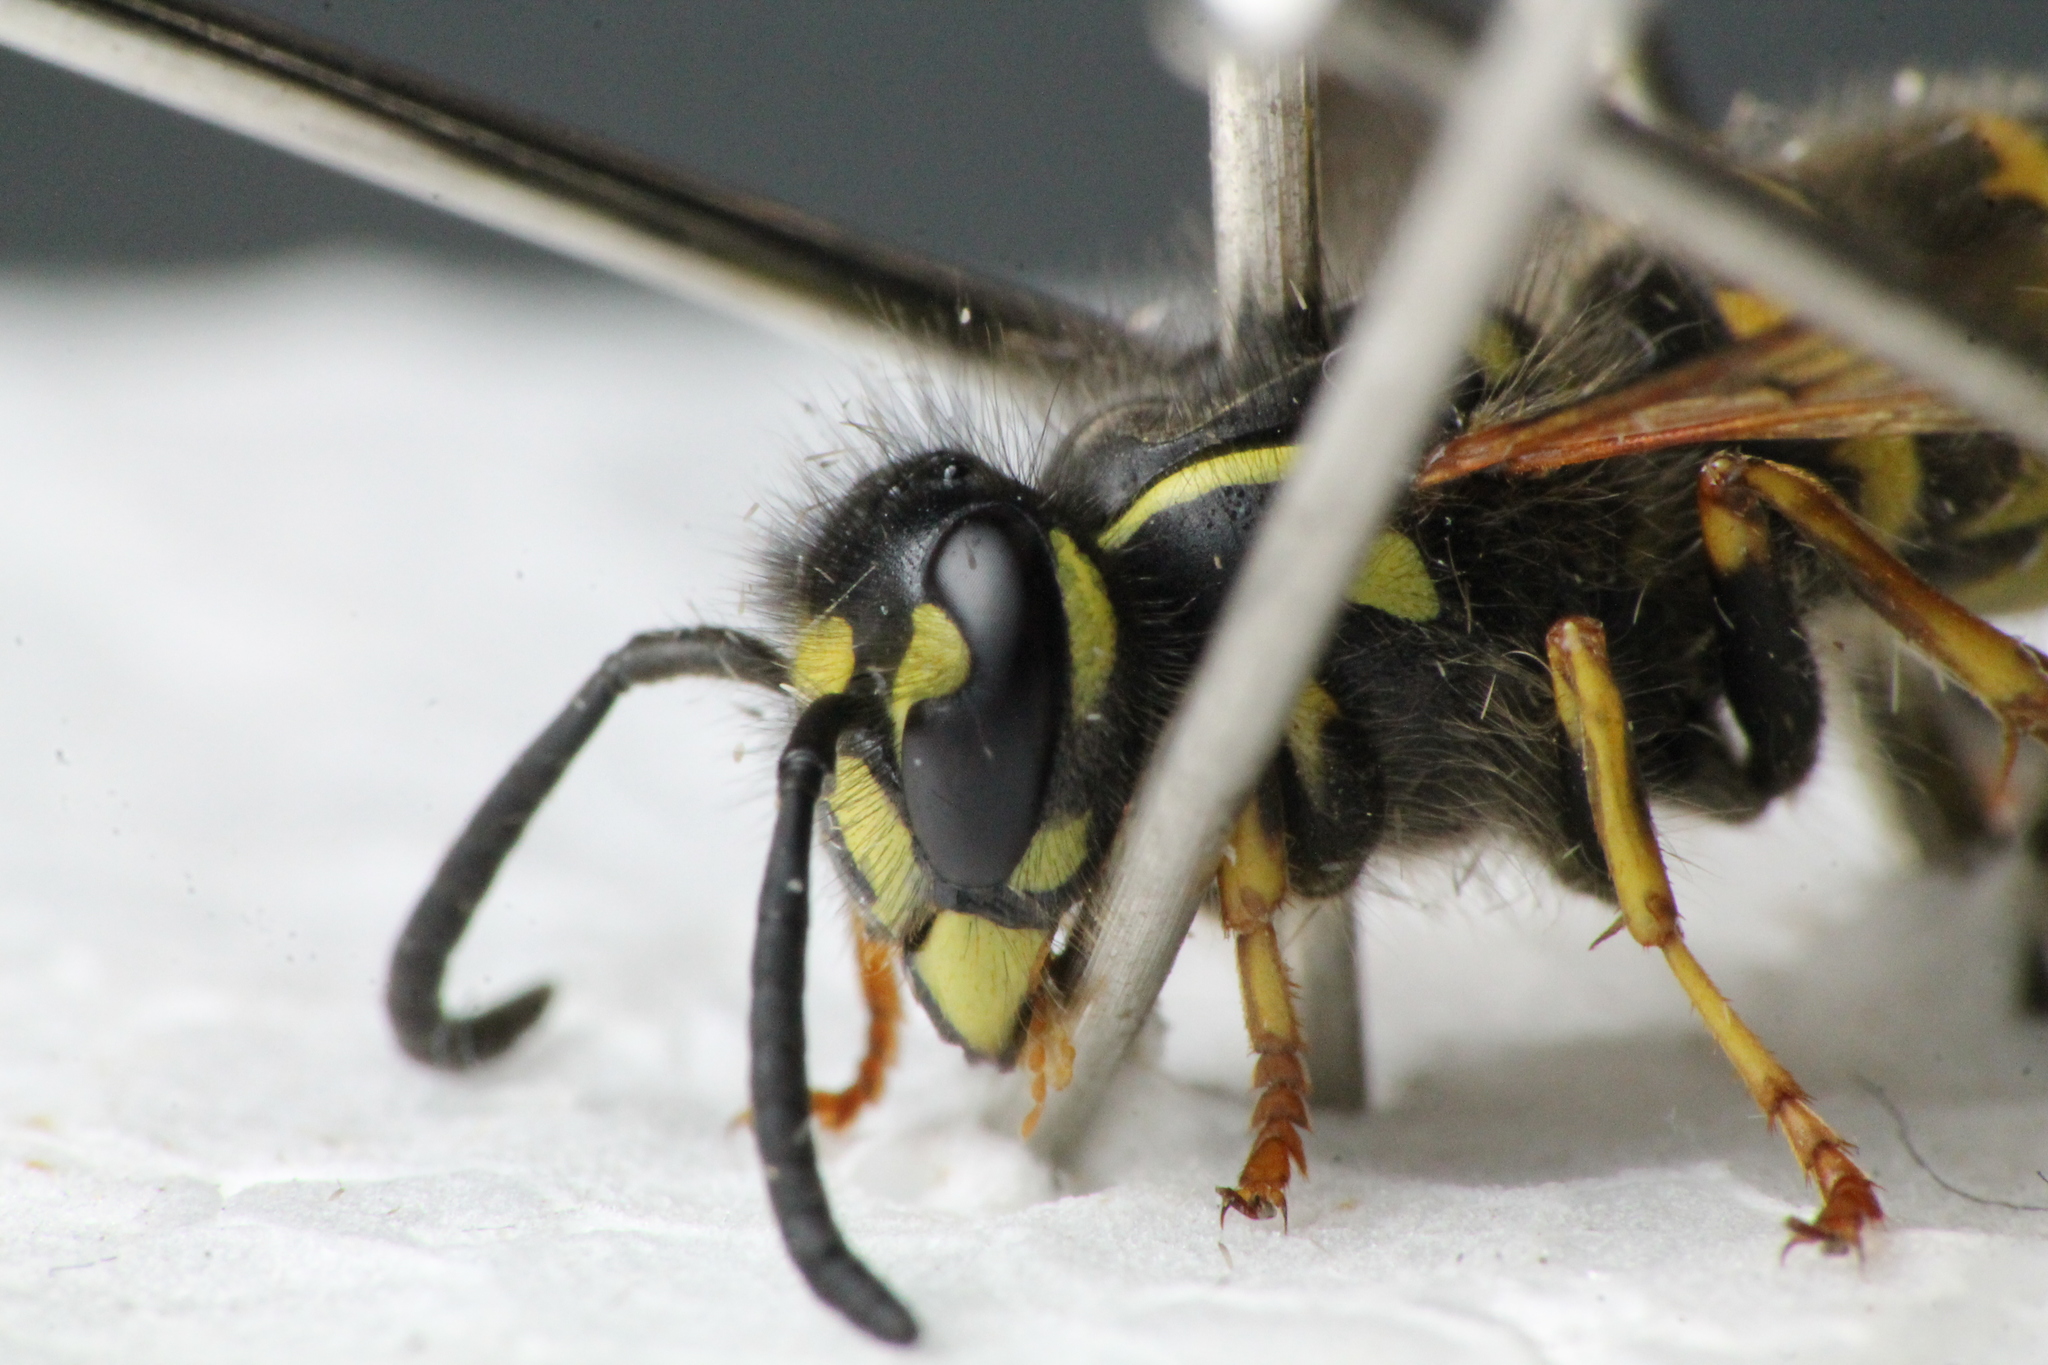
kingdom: Animalia
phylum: Arthropoda
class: Insecta
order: Hymenoptera
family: Vespidae
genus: Vespula
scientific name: Vespula vulgaris
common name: Common wasp
